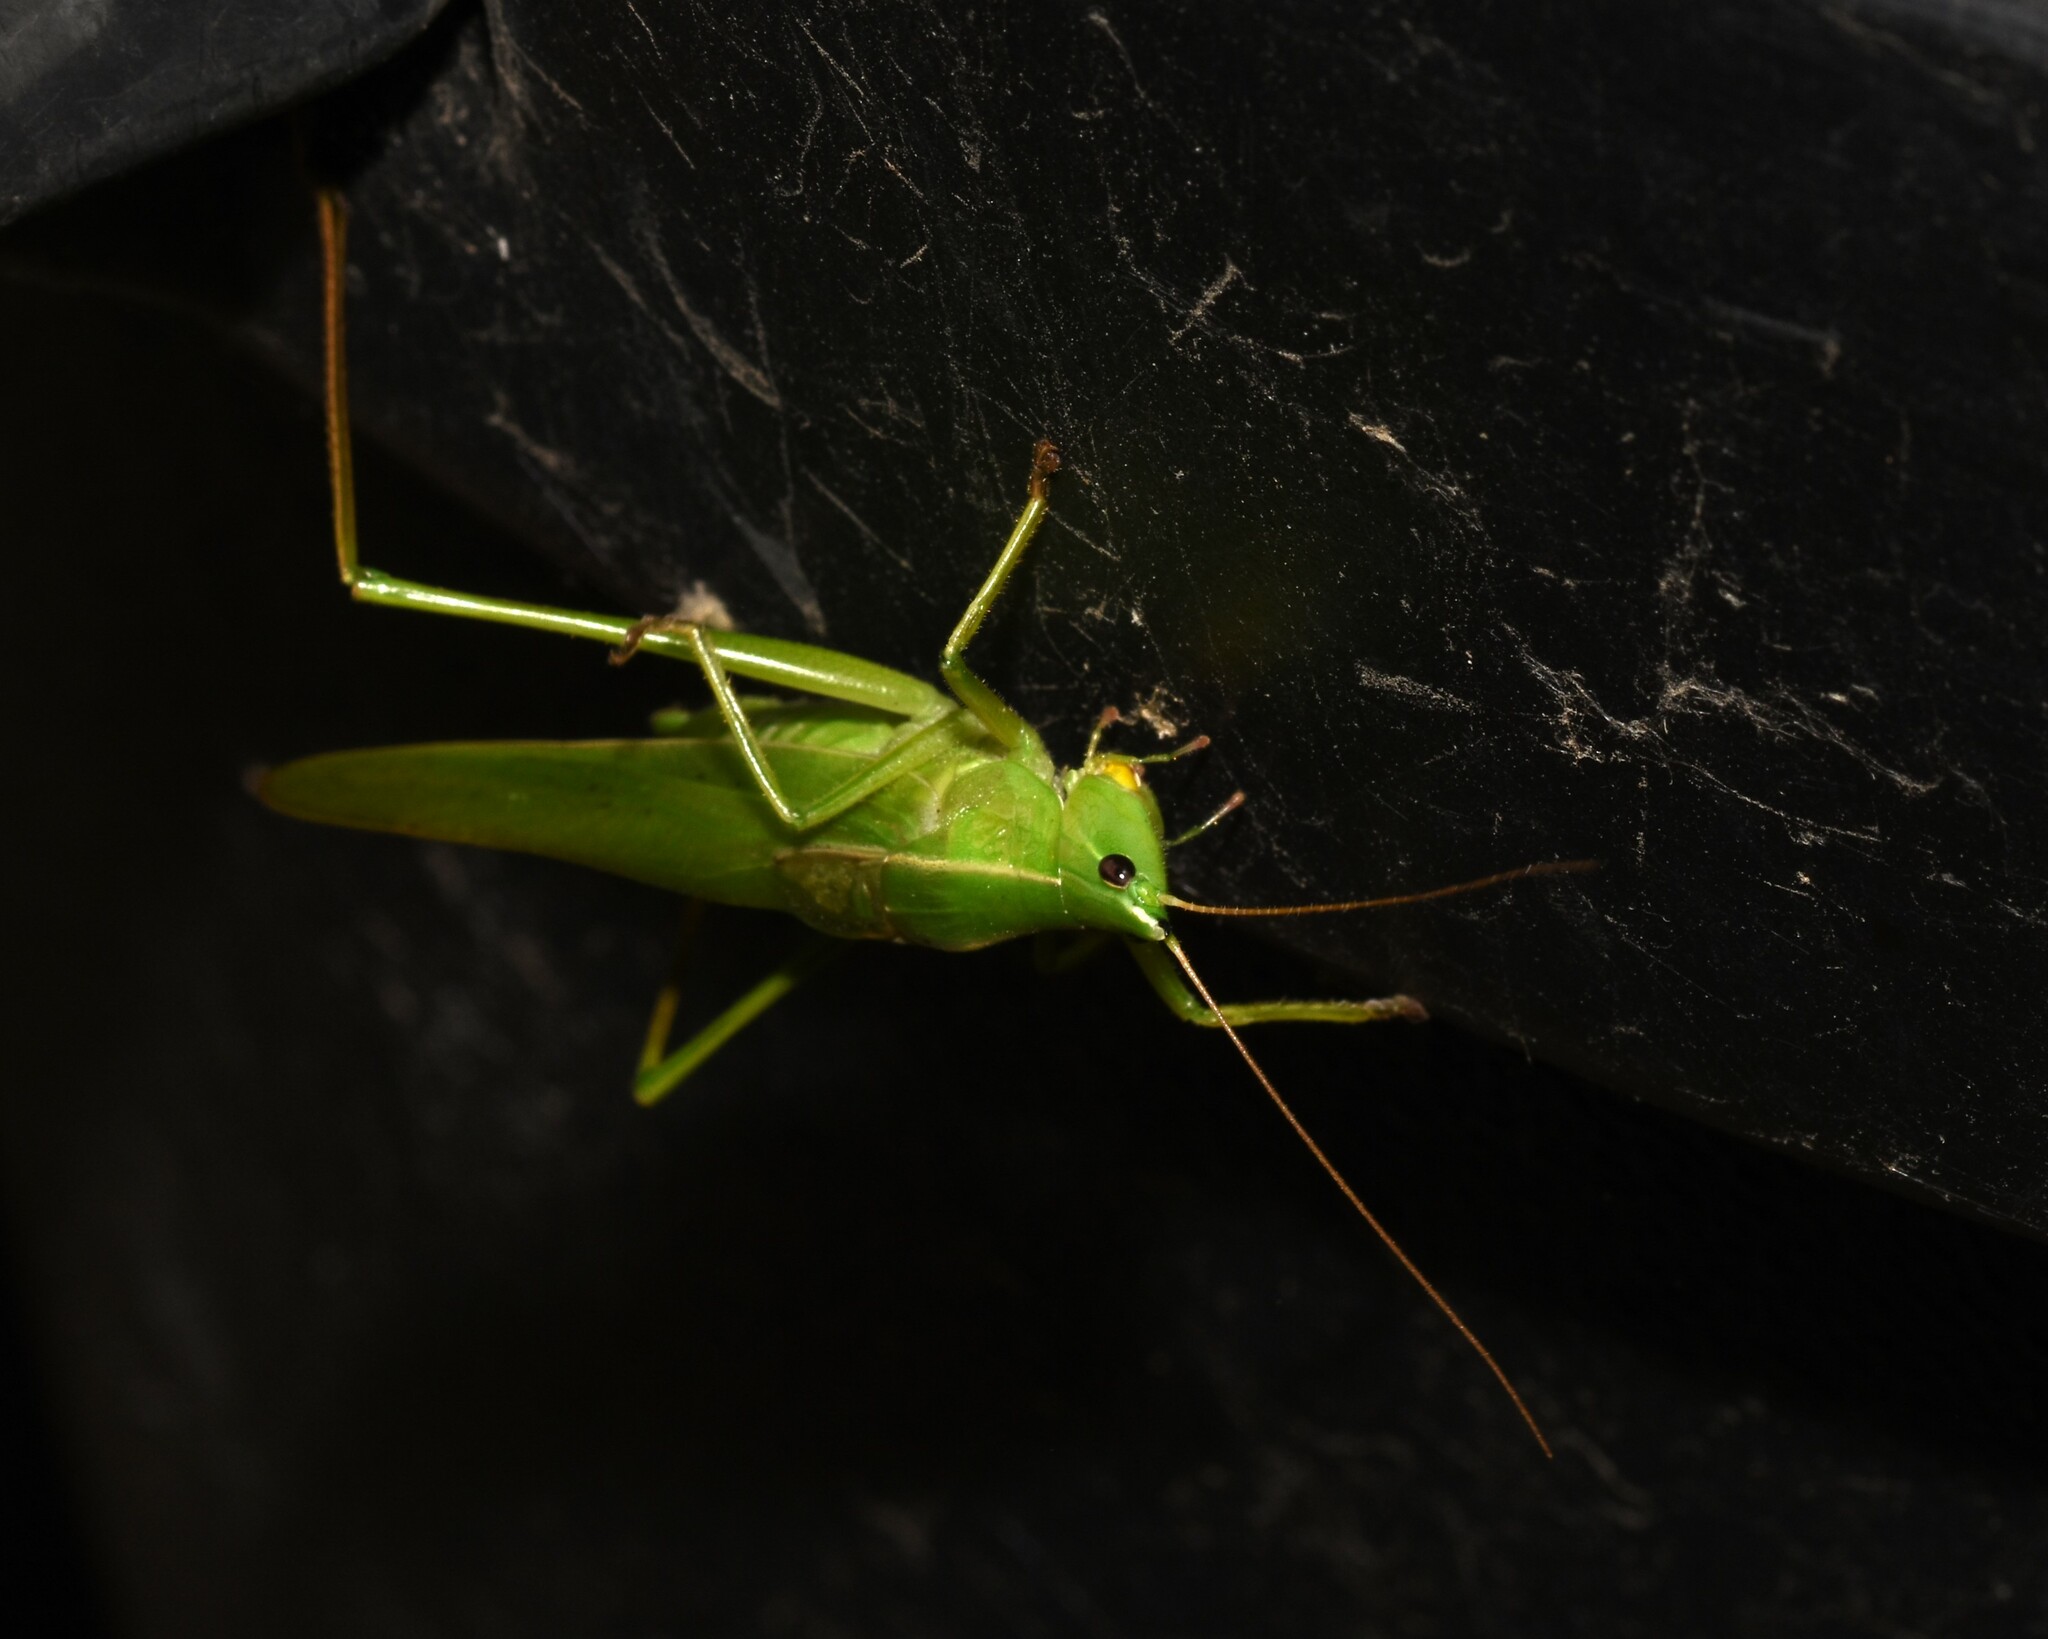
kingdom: Animalia
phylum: Arthropoda
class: Insecta
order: Orthoptera
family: Tettigoniidae
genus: Neoconocephalus
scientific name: Neoconocephalus retusus
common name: Round-tipped conehead
